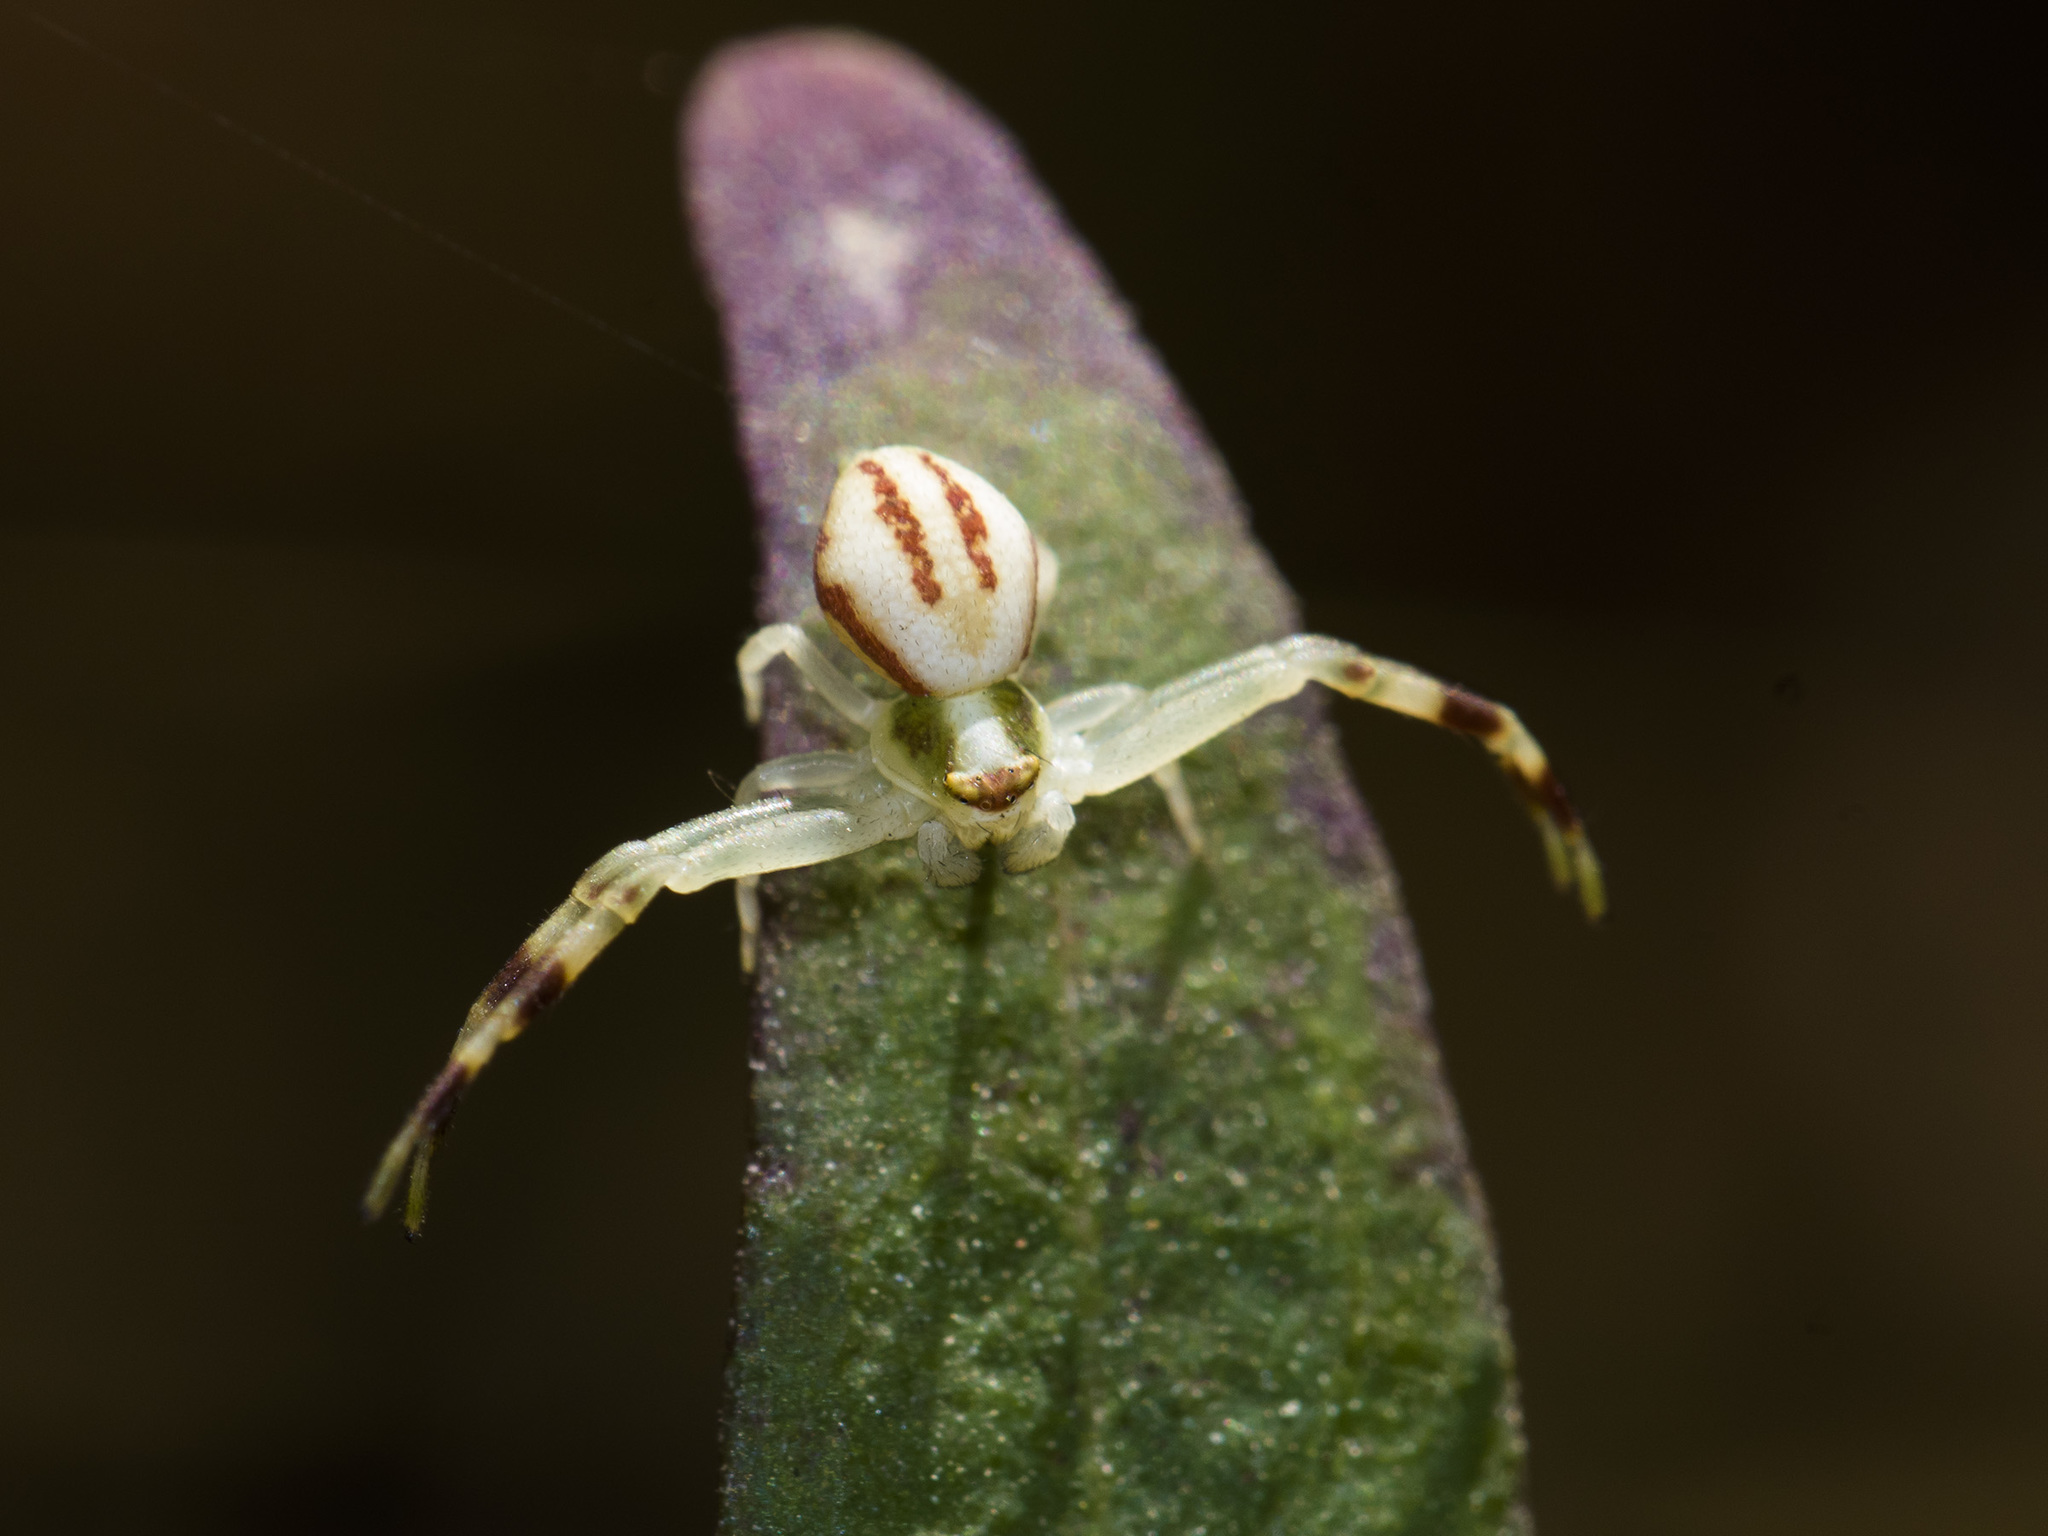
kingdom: Animalia
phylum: Arthropoda
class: Arachnida
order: Araneae
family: Thomisidae
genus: Misumena
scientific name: Misumena vatia
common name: Goldenrod crab spider
